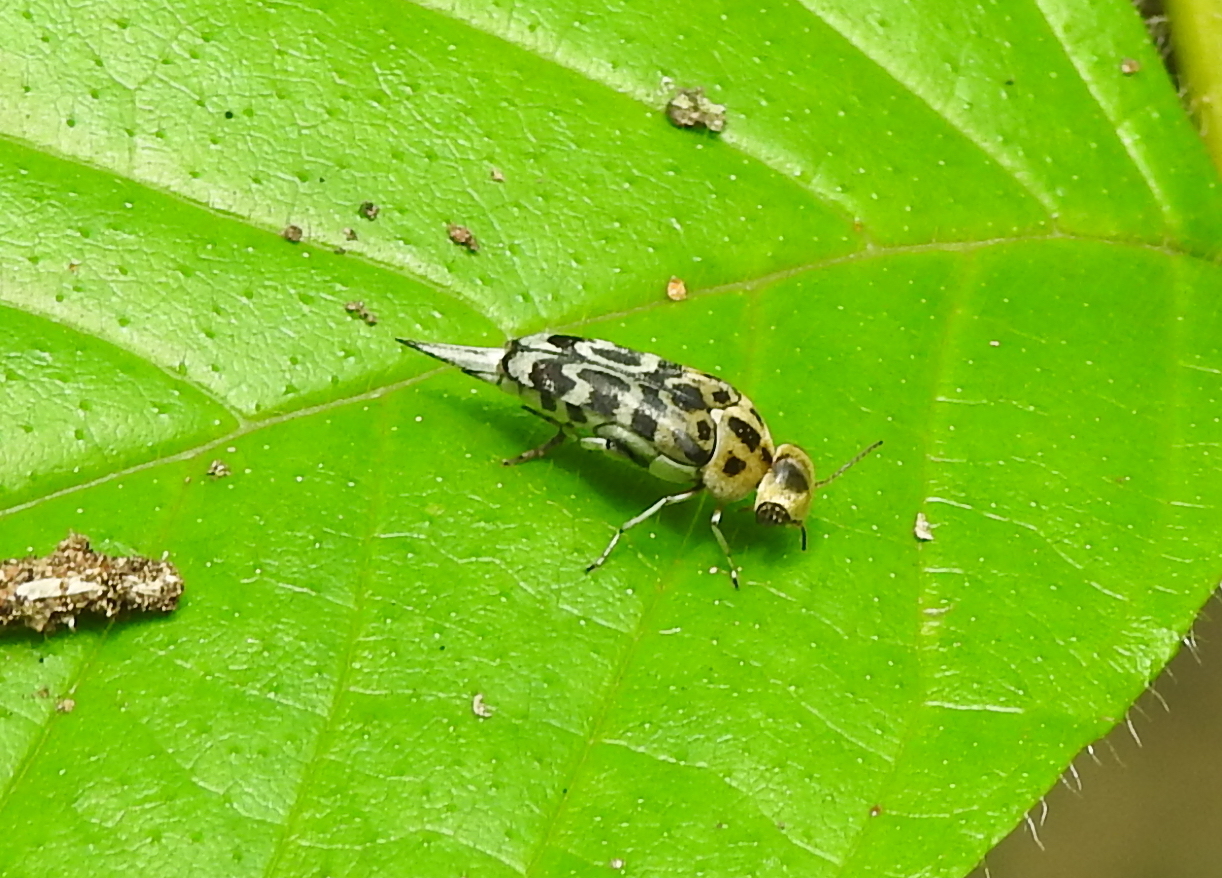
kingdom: Animalia
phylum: Arthropoda
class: Insecta
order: Coleoptera
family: Mordellidae
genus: Glipa
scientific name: Glipa
